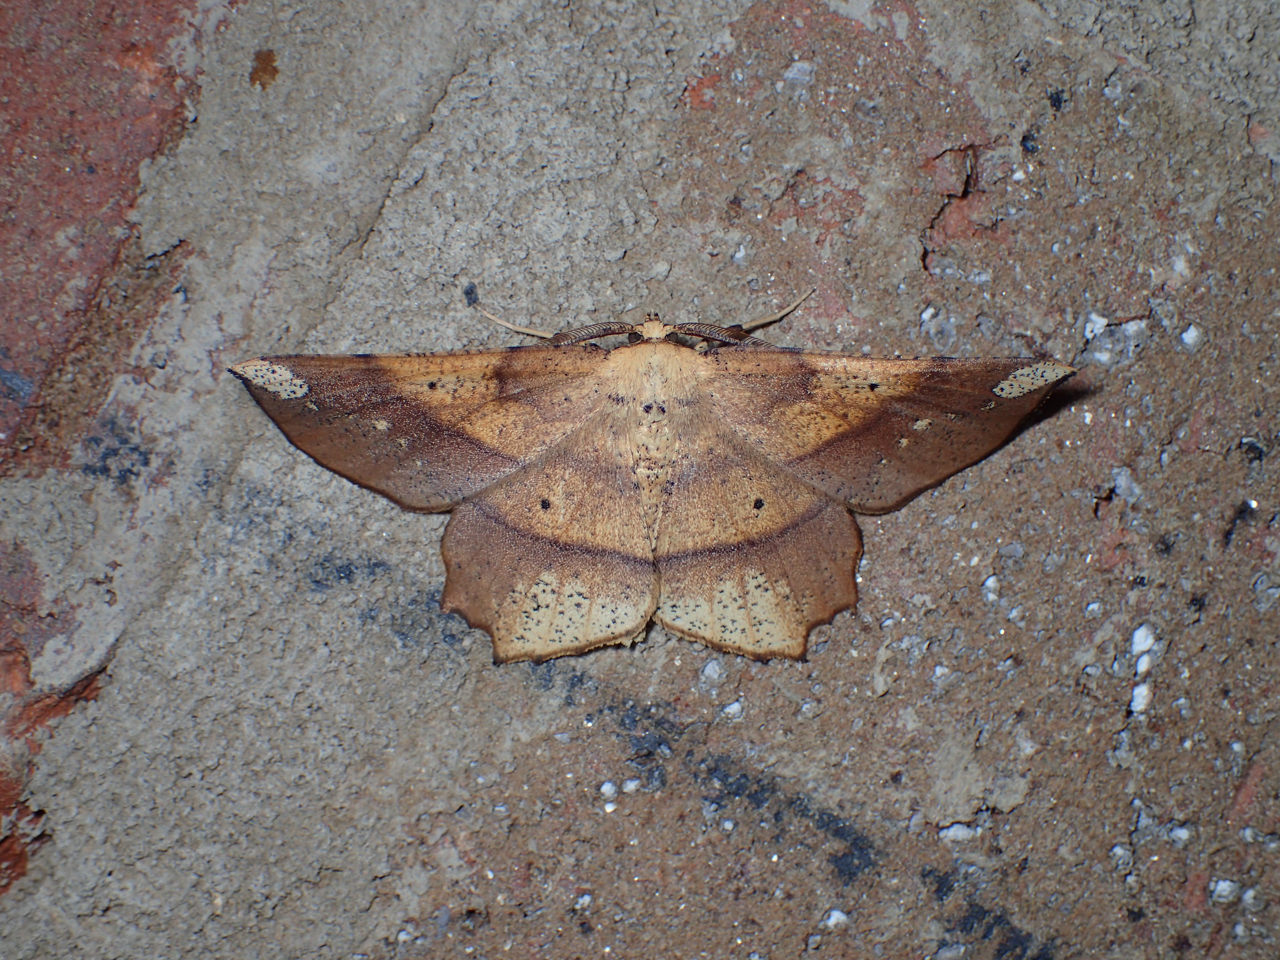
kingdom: Animalia
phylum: Arthropoda
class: Insecta
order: Lepidoptera
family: Geometridae
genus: Euchlaena
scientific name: Euchlaena amoenaria
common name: Deep yellow euchlaena
